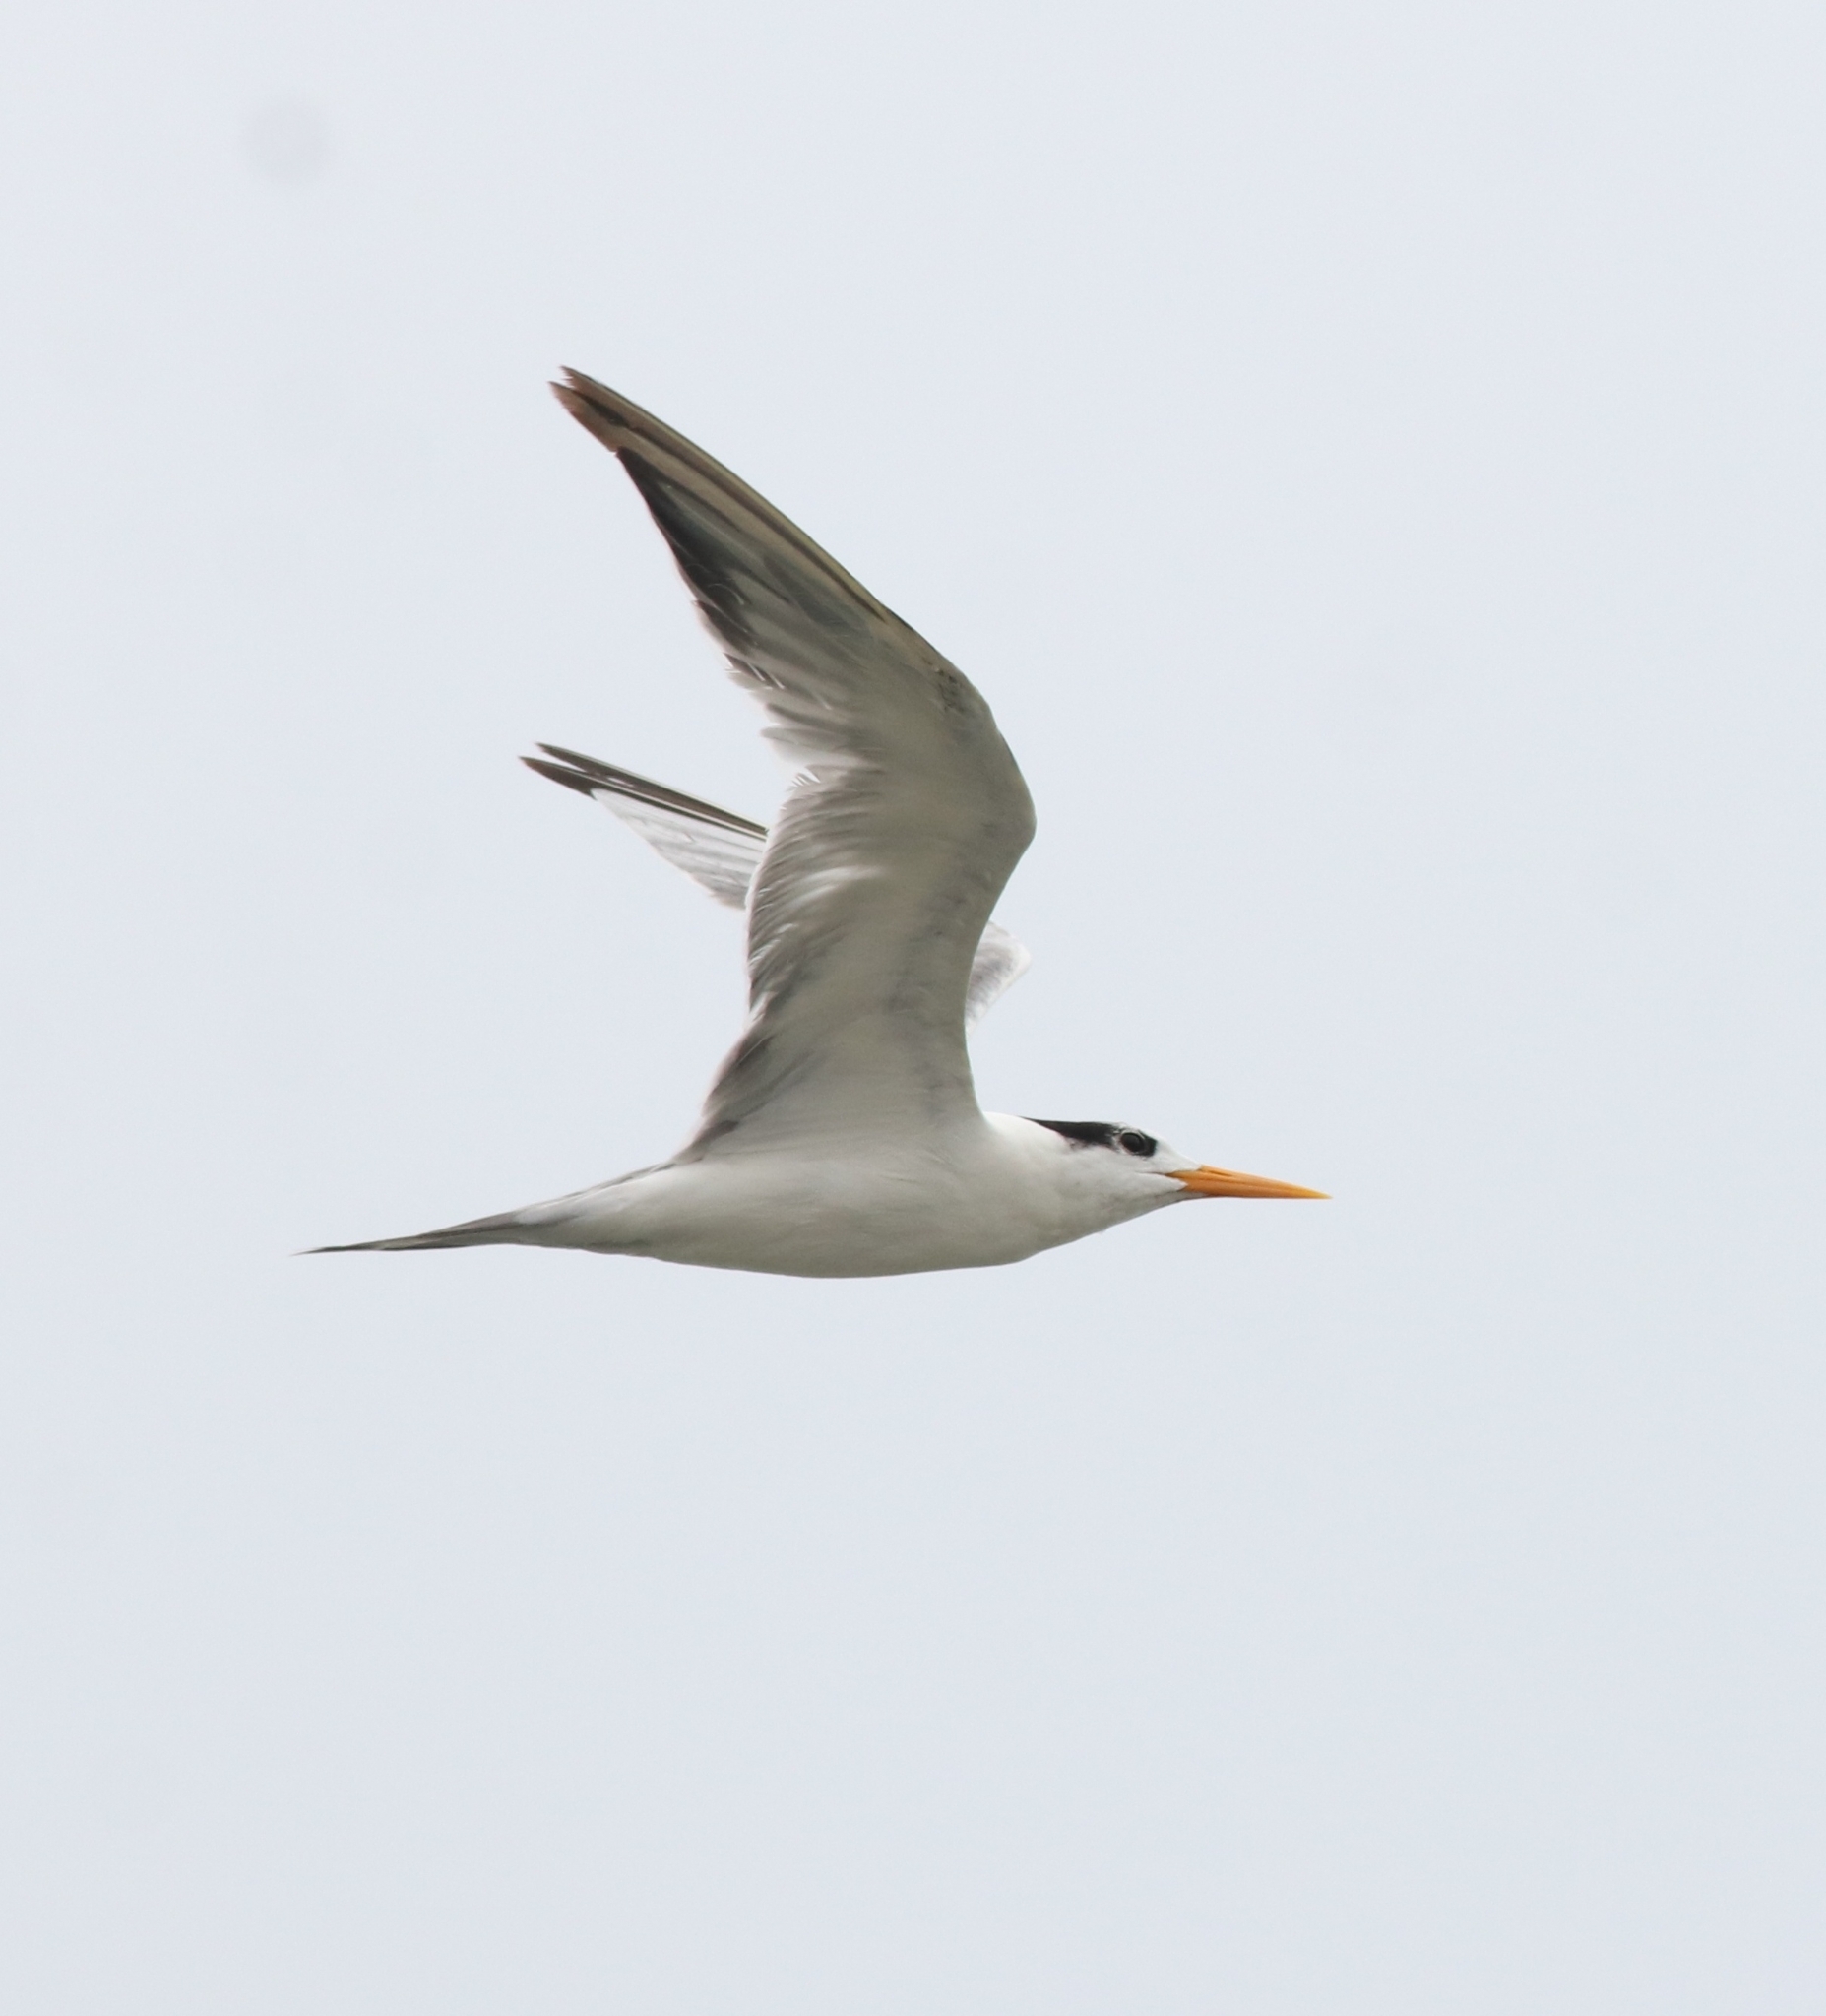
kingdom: Animalia
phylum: Chordata
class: Aves
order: Charadriiformes
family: Laridae
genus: Thalasseus
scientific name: Thalasseus bengalensis
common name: Lesser crested tern
